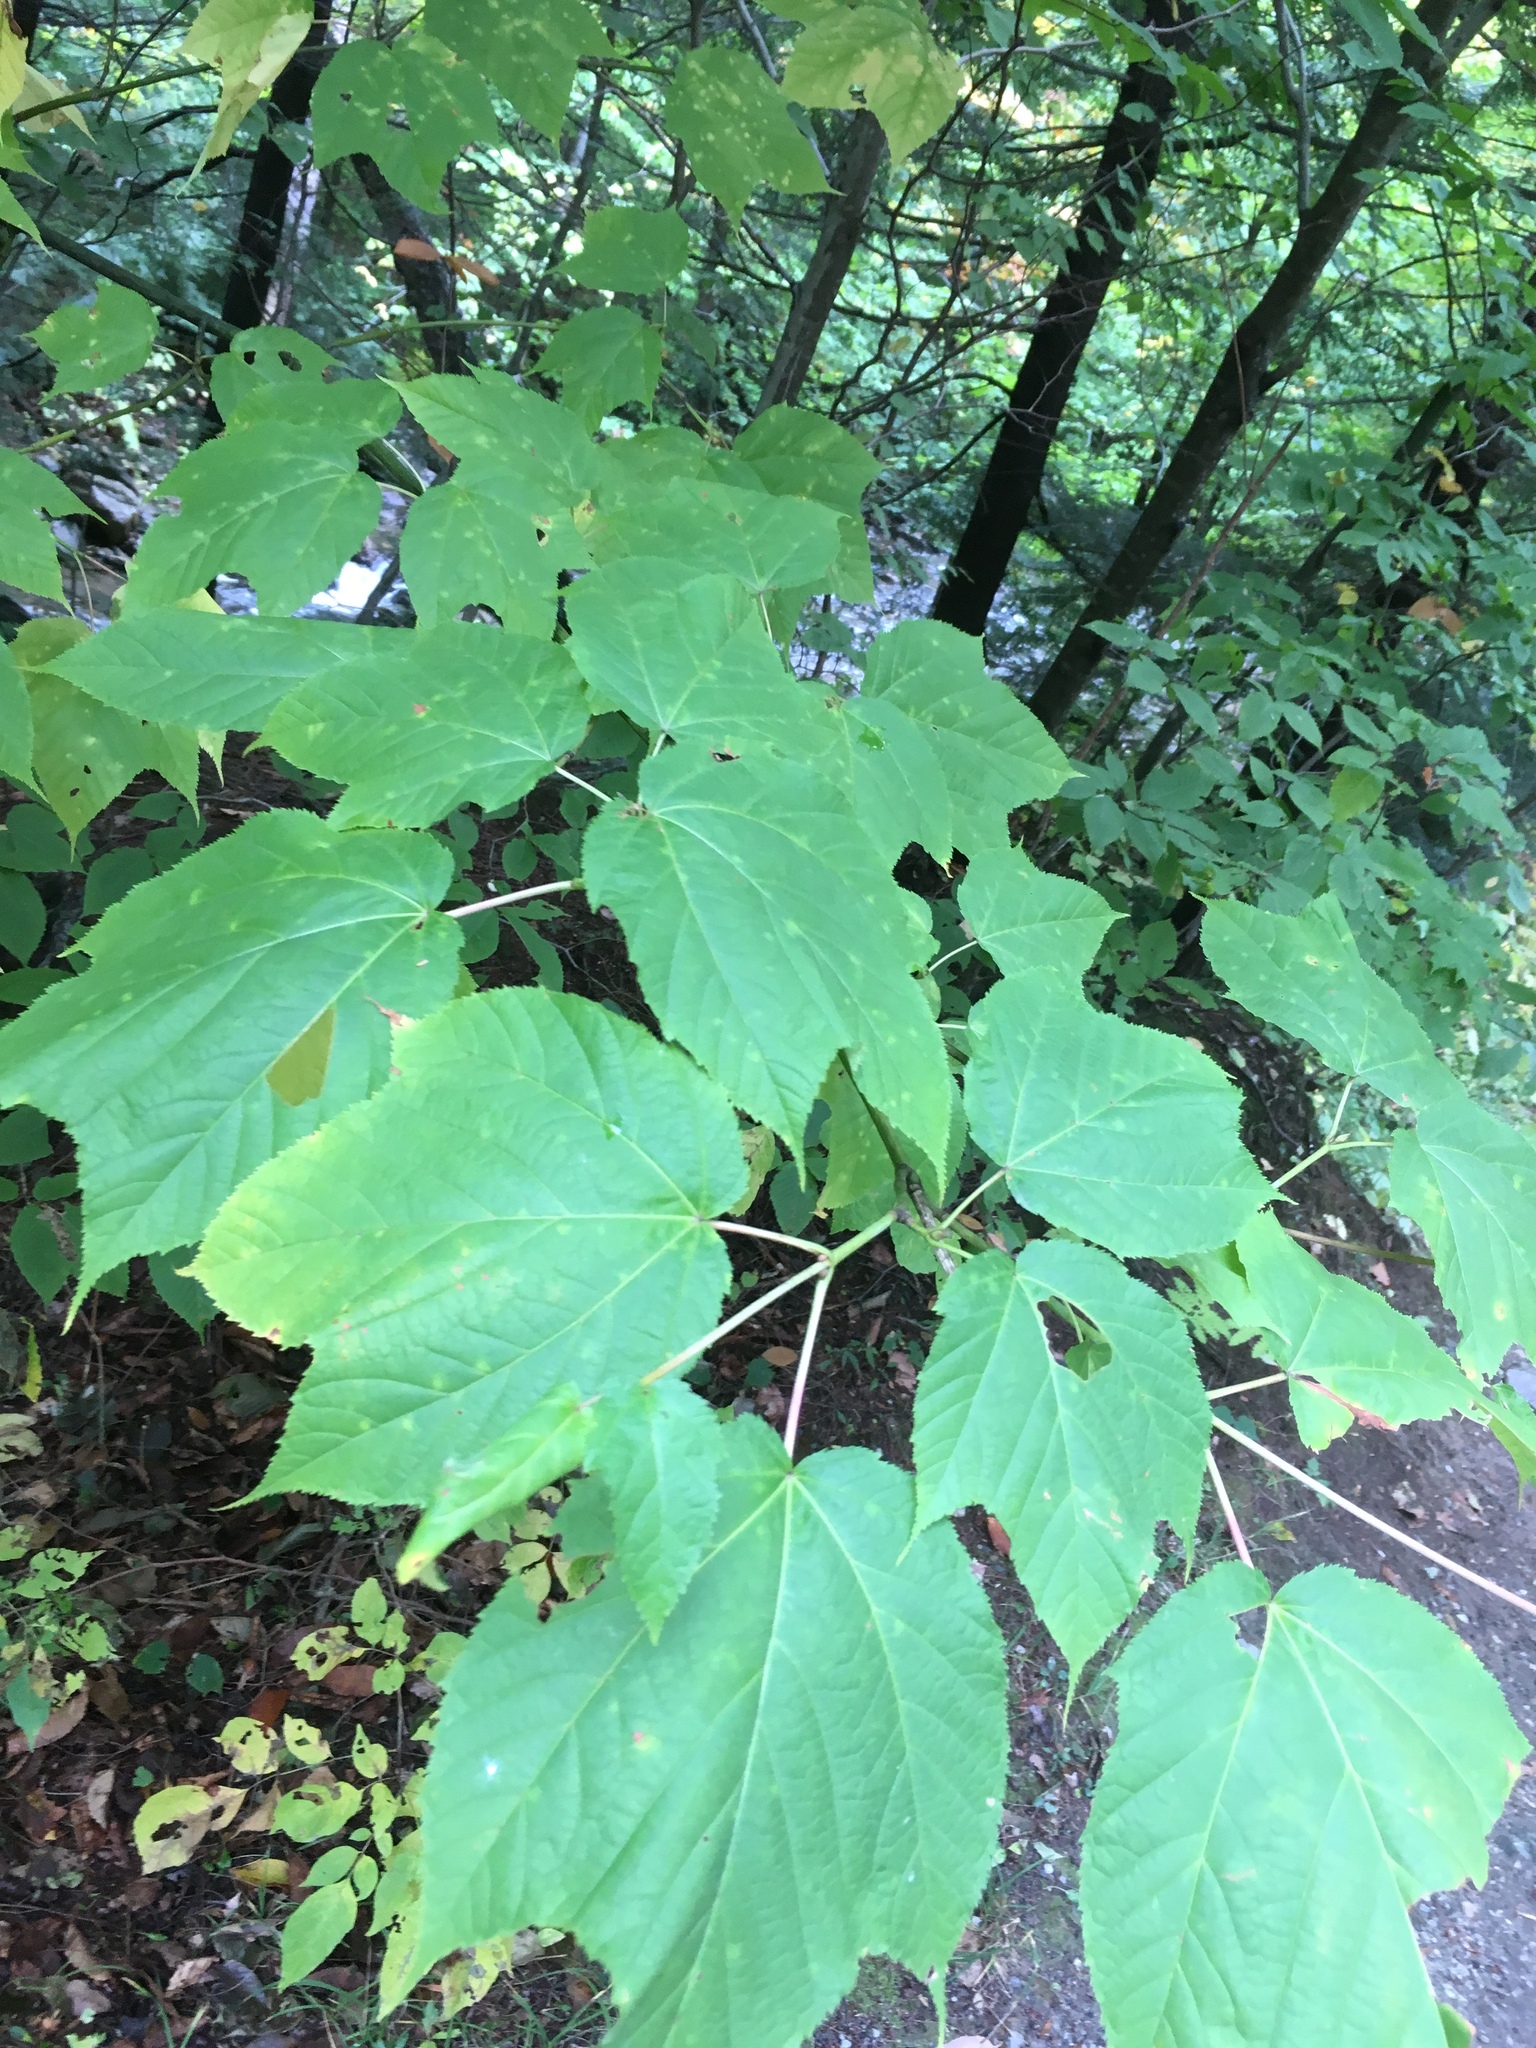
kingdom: Plantae
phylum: Tracheophyta
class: Magnoliopsida
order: Sapindales
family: Sapindaceae
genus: Acer
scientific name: Acer pensylvanicum
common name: Moosewood
